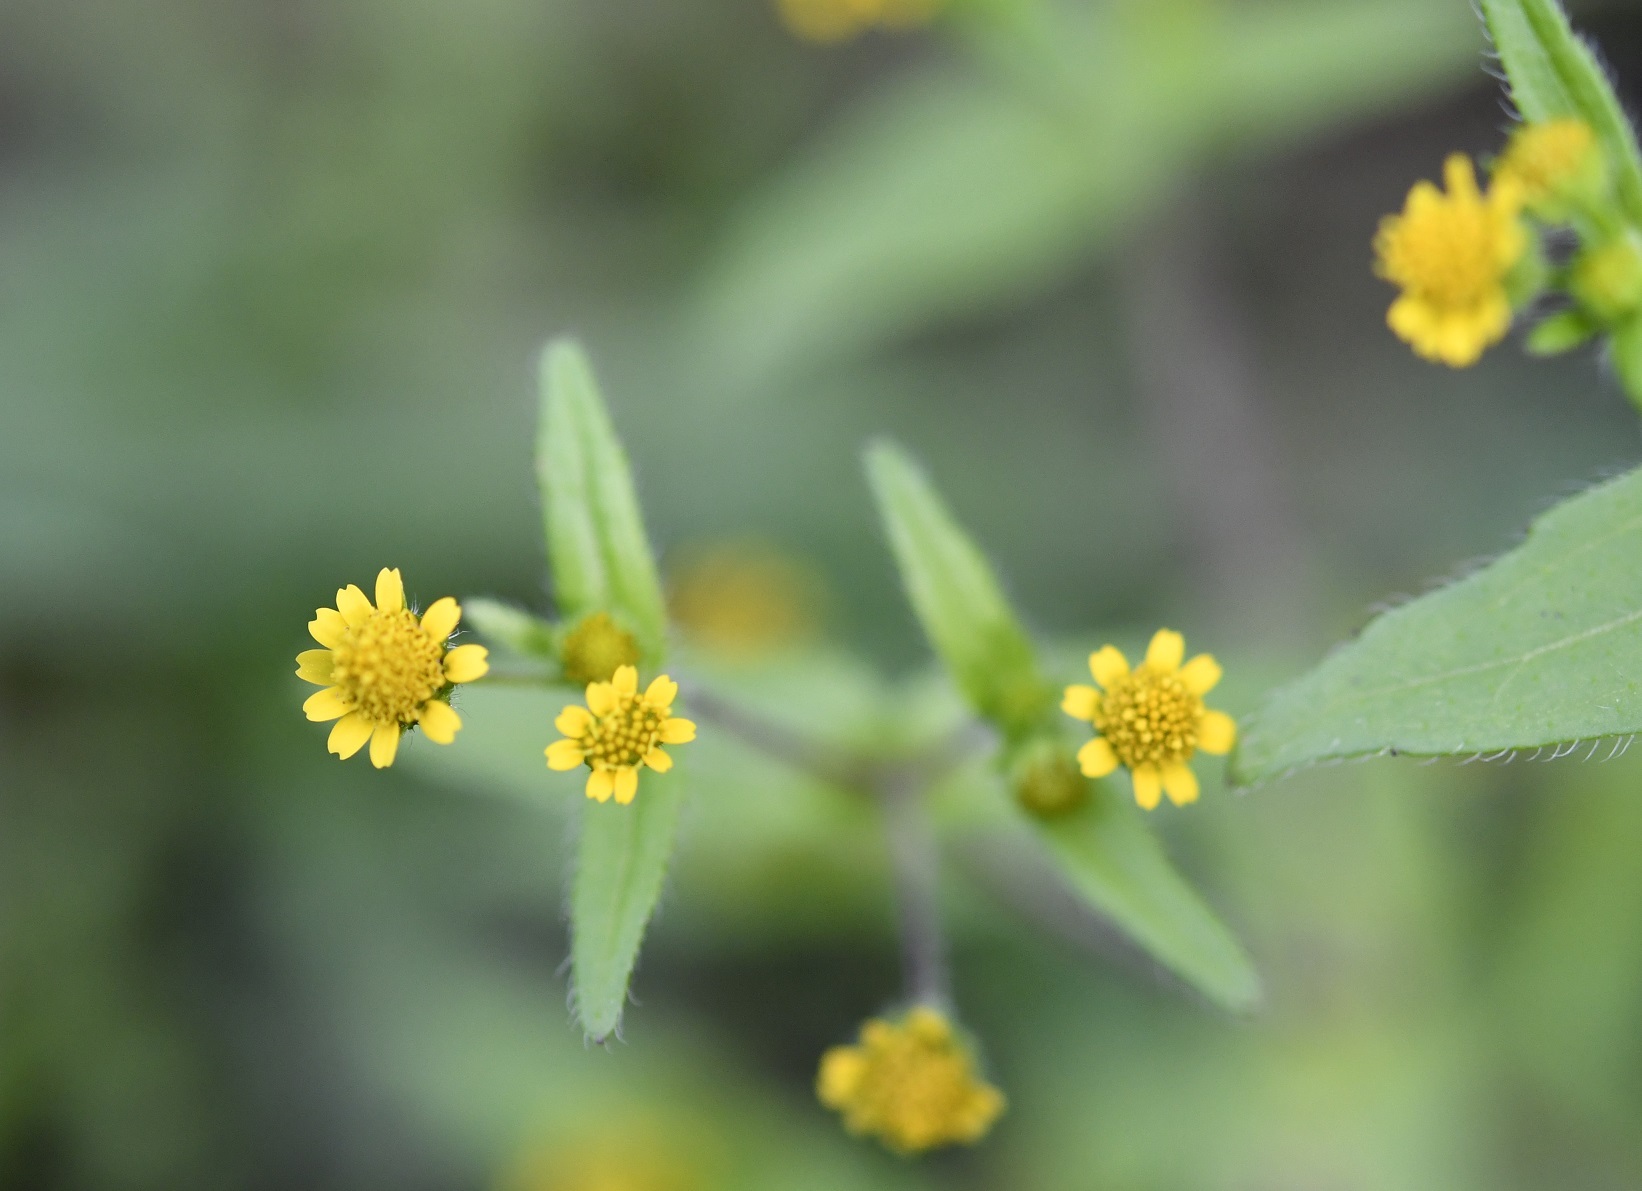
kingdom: Plantae
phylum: Tracheophyta
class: Magnoliopsida
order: Asterales
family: Asteraceae
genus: Jaegeria
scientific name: Jaegeria hirta
